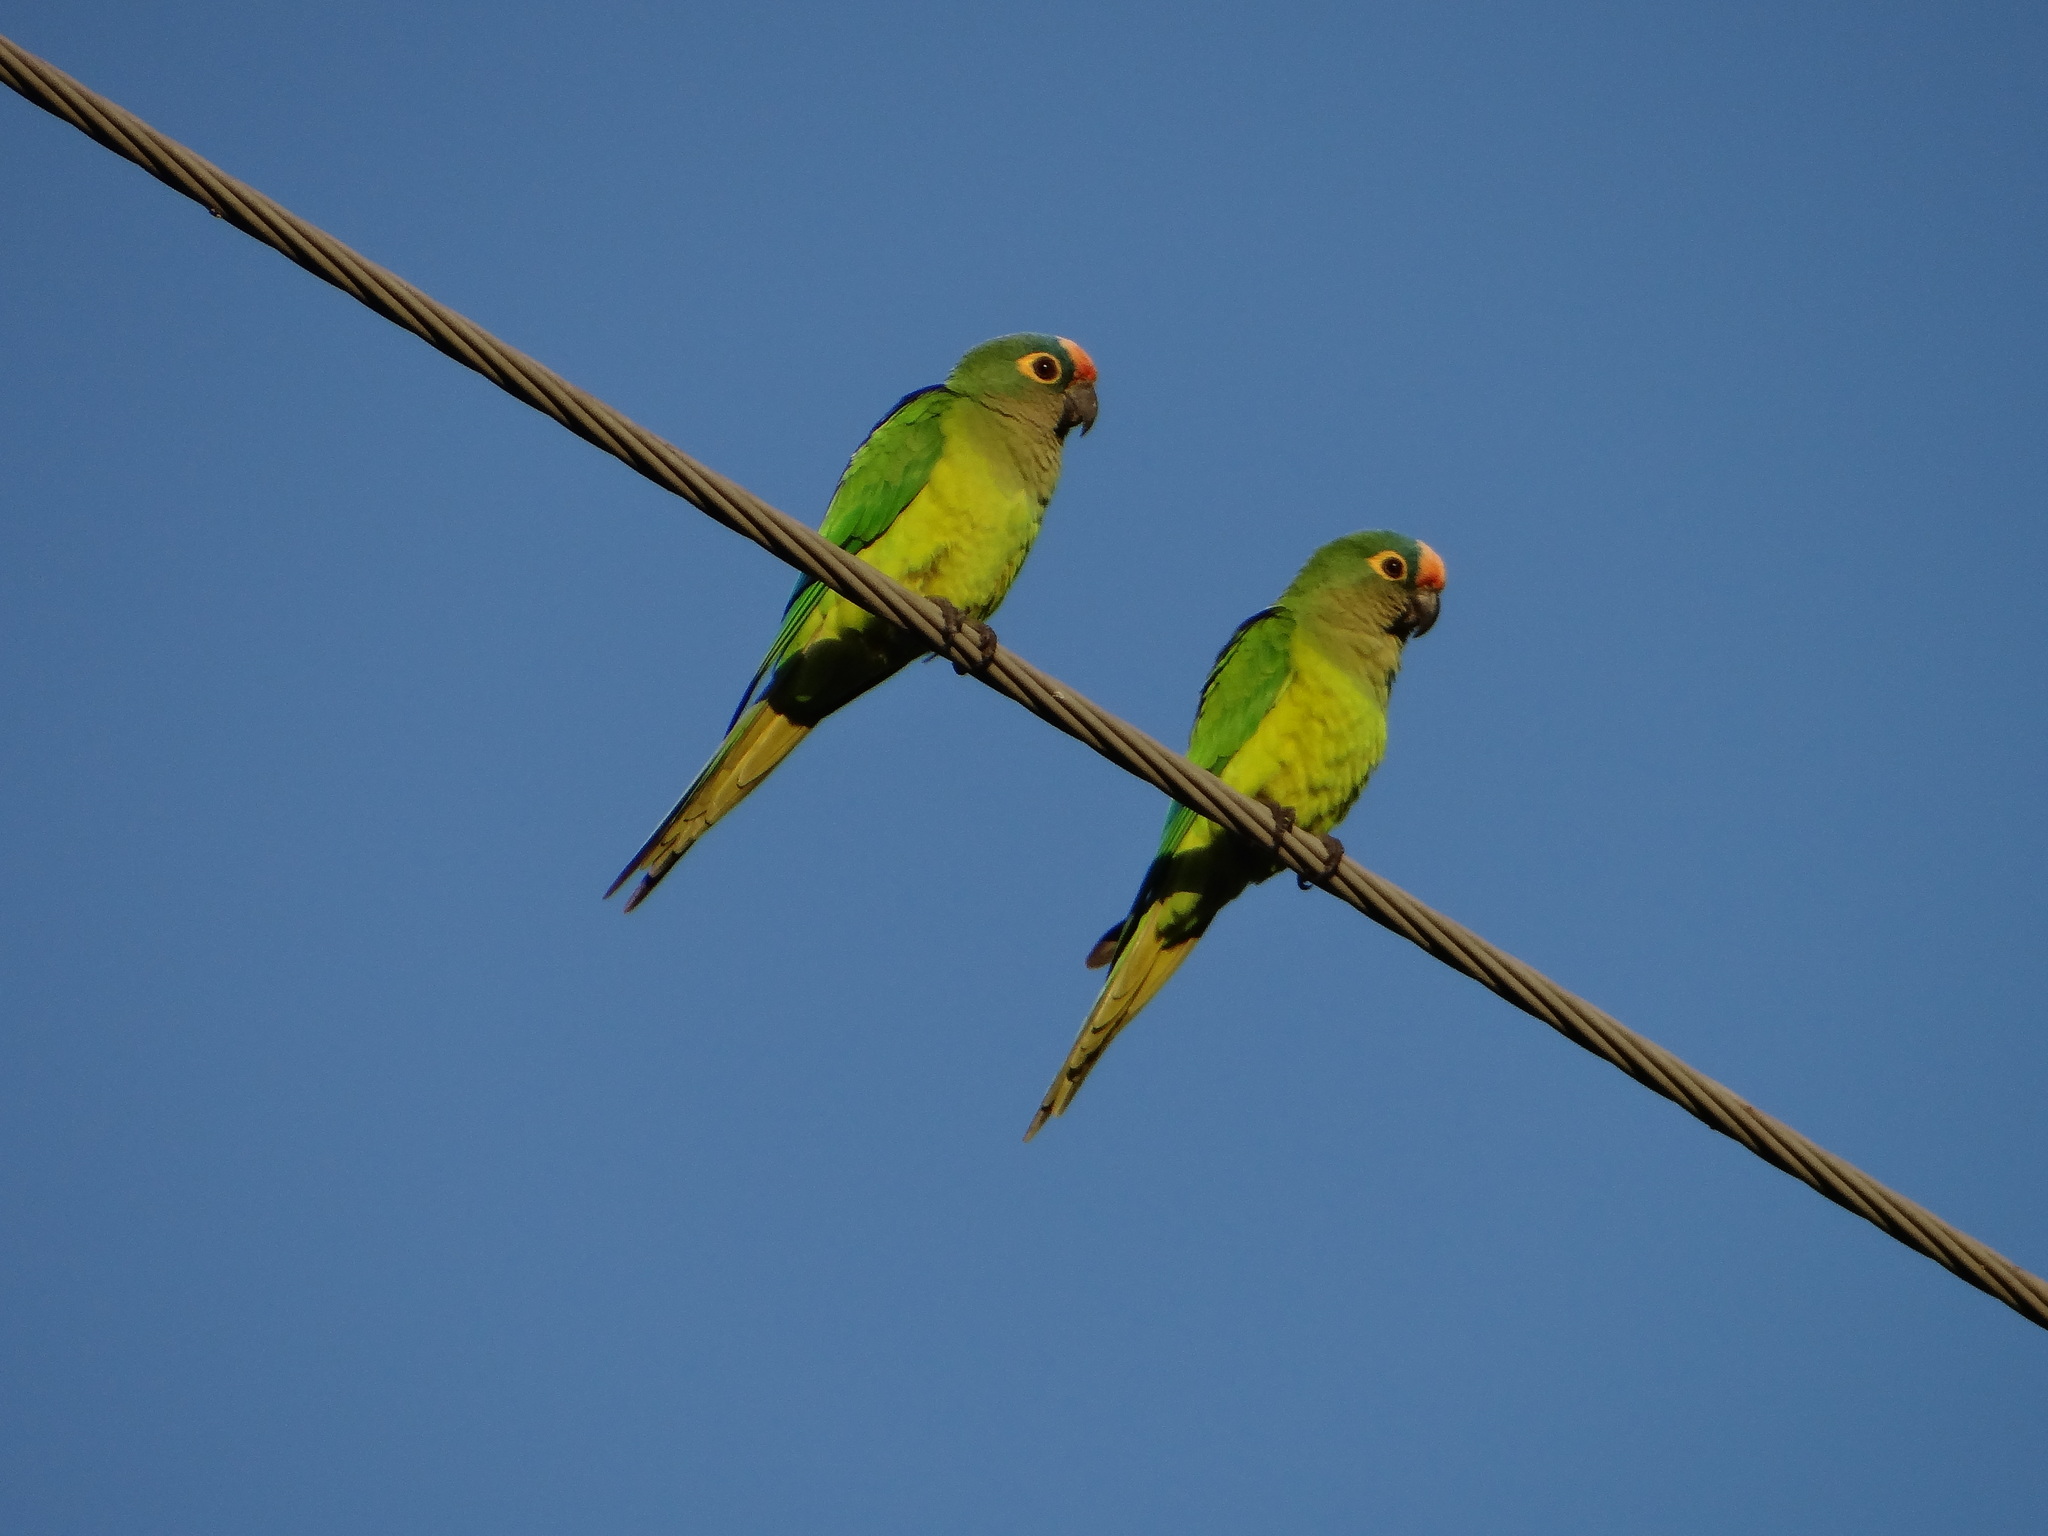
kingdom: Animalia
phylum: Chordata
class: Aves
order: Psittaciformes
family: Psittacidae
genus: Aratinga
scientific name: Aratinga aurea
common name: Peach-fronted parakeet
